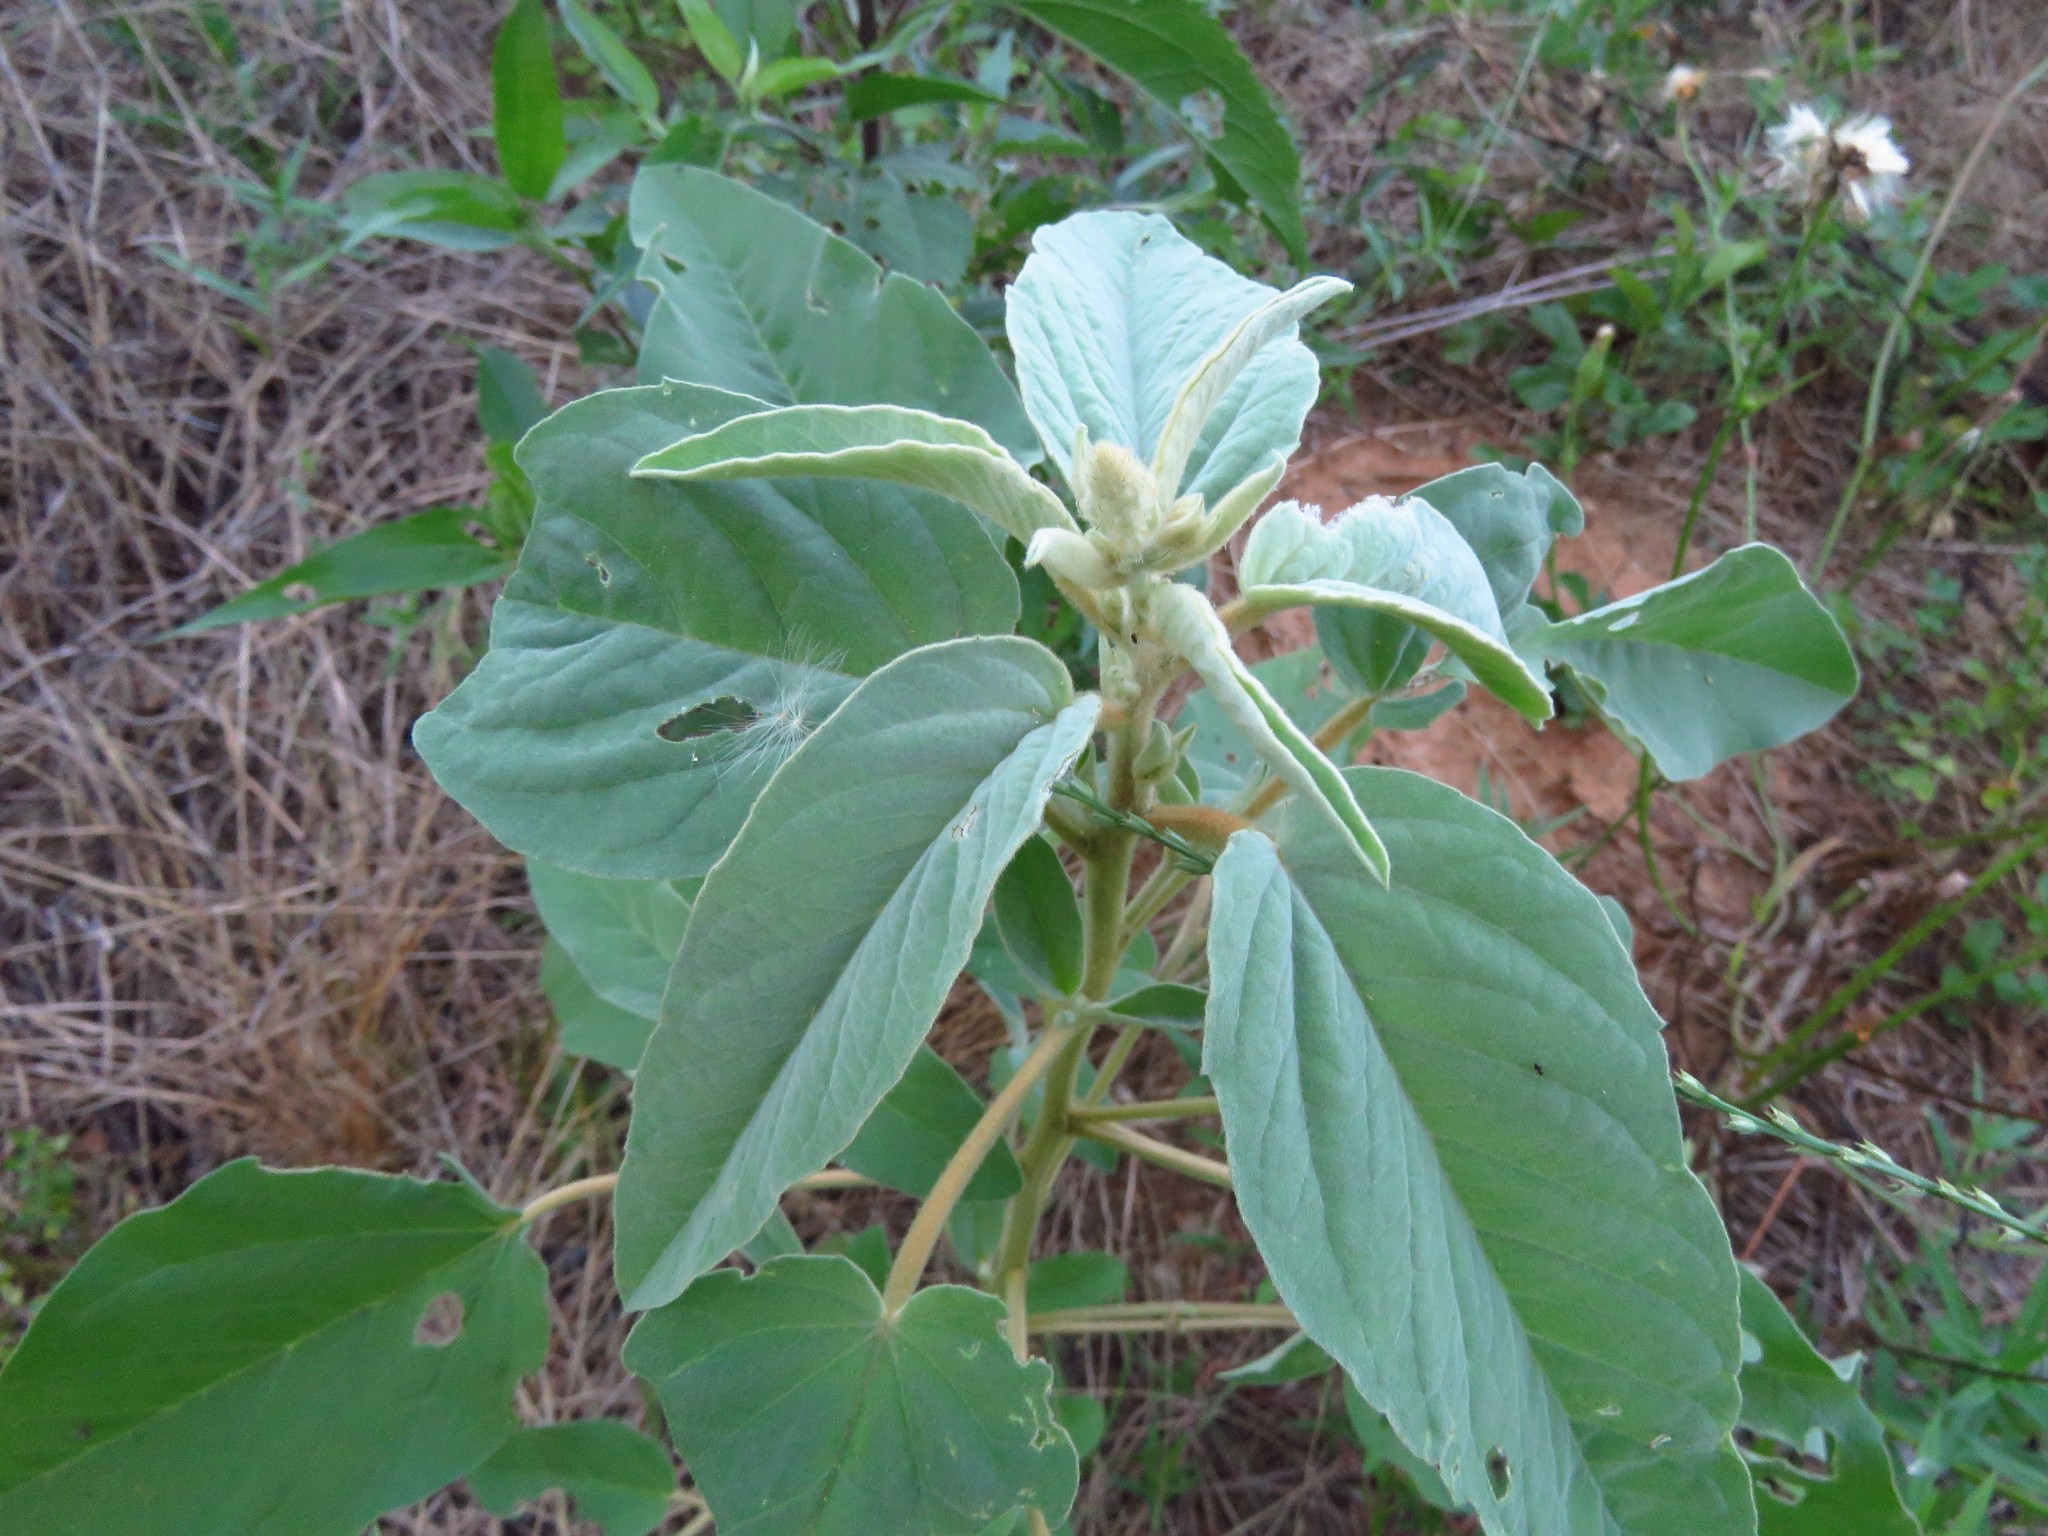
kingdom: Plantae
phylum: Tracheophyta
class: Magnoliopsida
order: Malpighiales
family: Euphorbiaceae
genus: Croton
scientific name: Croton lindheimeri
